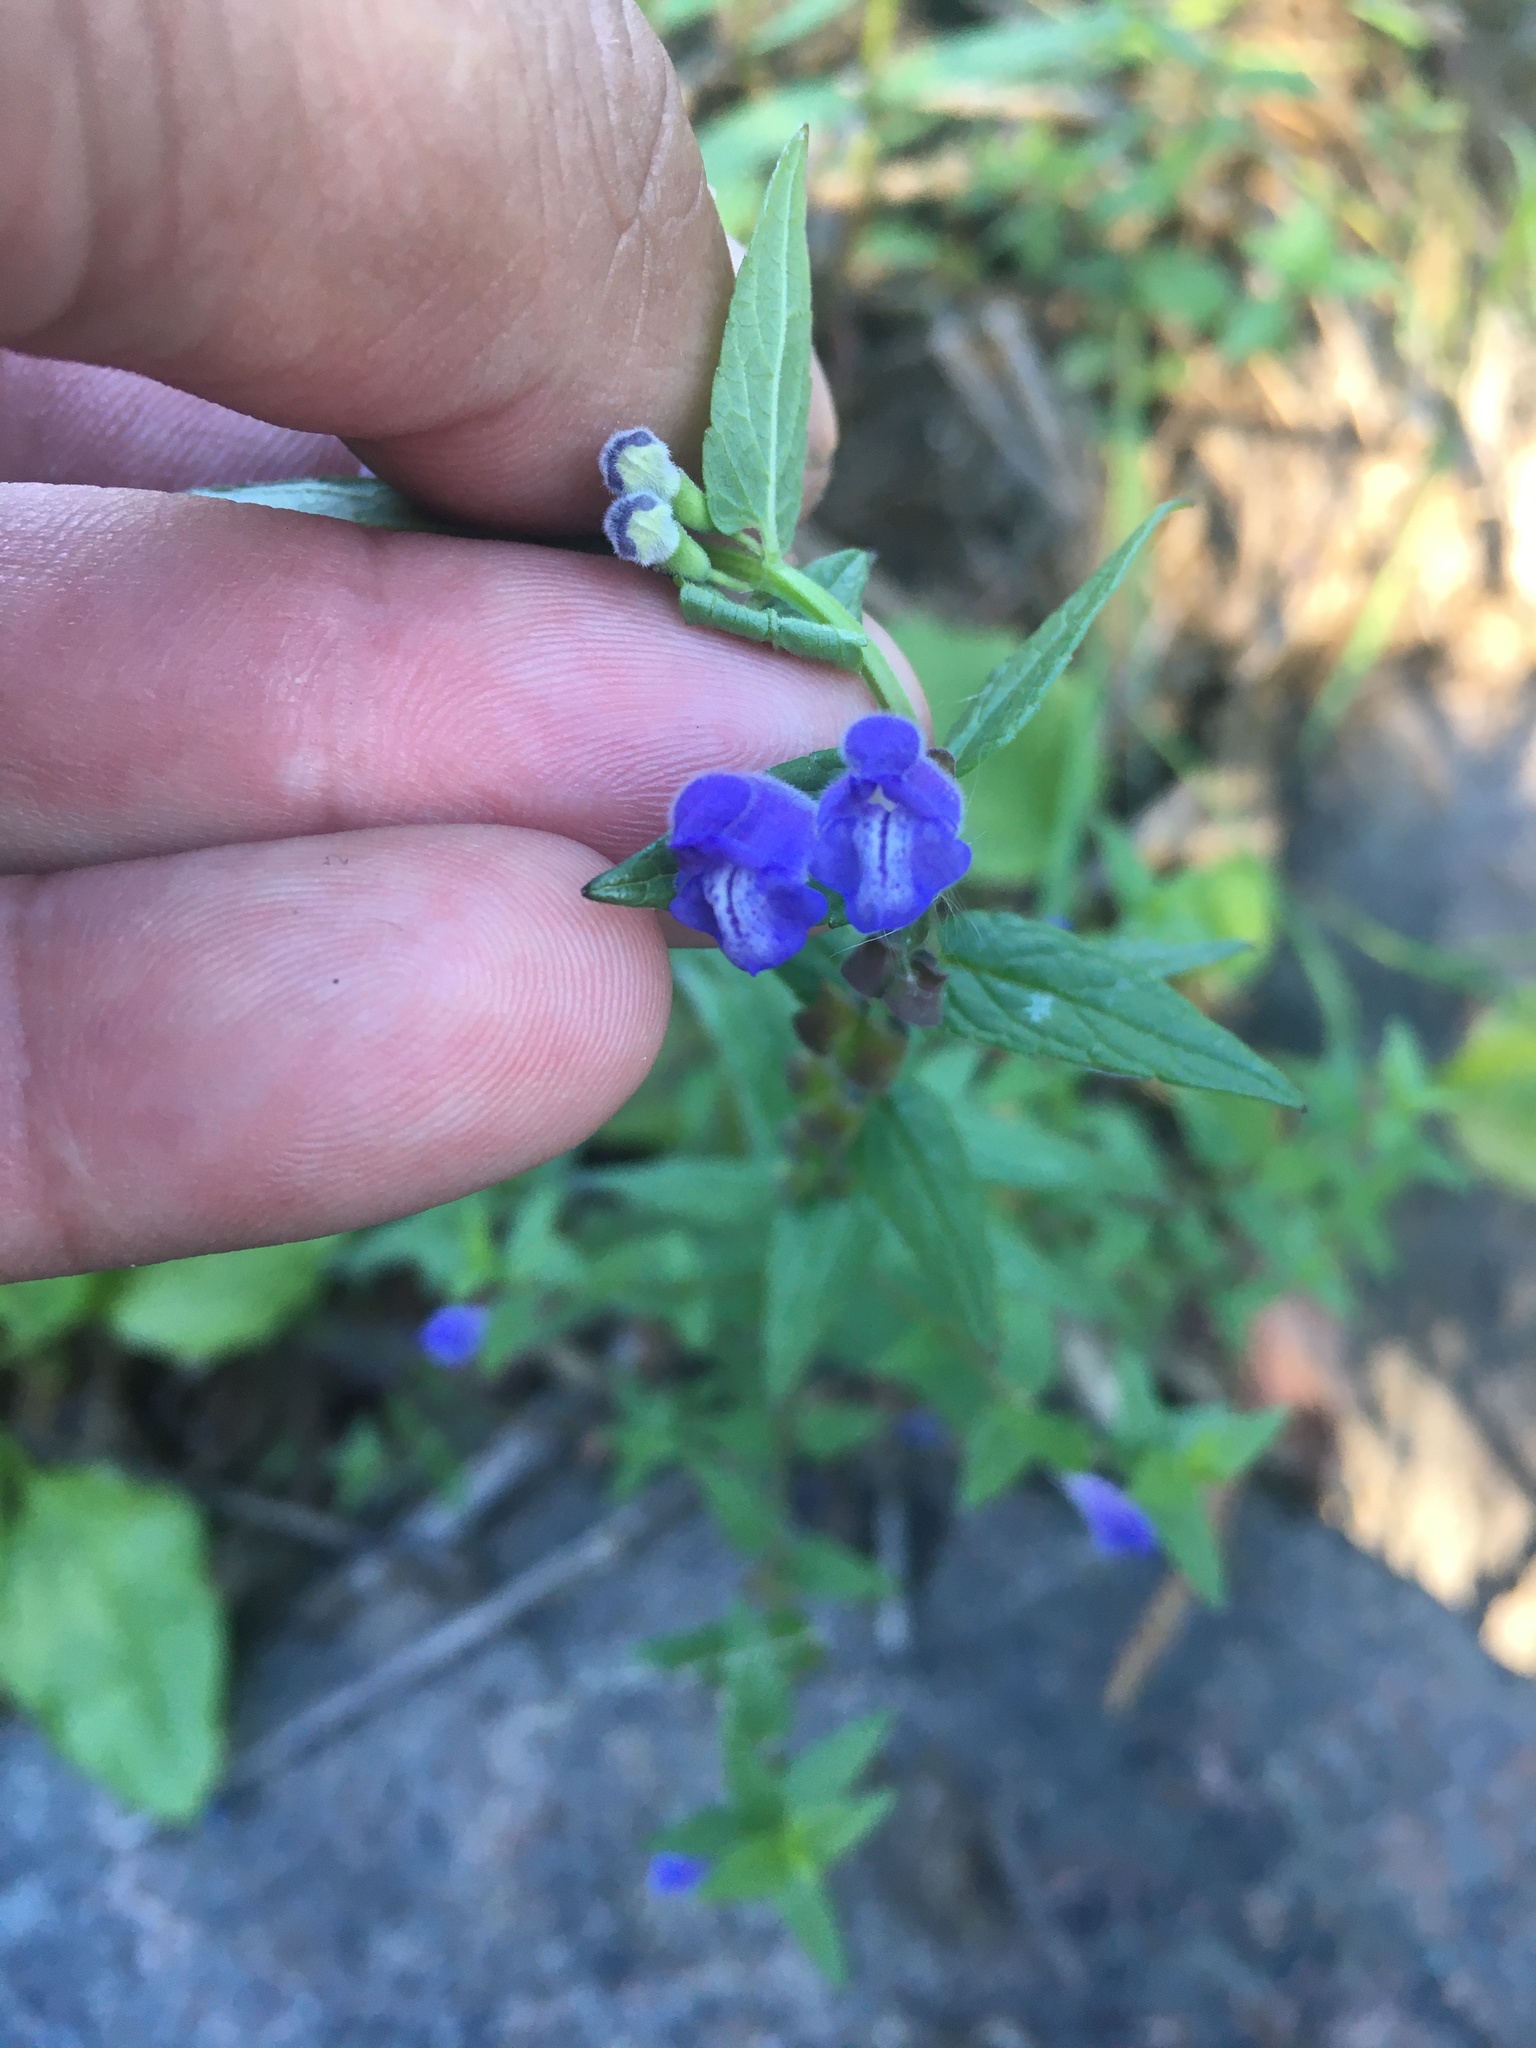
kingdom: Plantae
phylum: Tracheophyta
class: Magnoliopsida
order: Lamiales
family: Lamiaceae
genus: Scutellaria
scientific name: Scutellaria galericulata
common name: Skullcap
